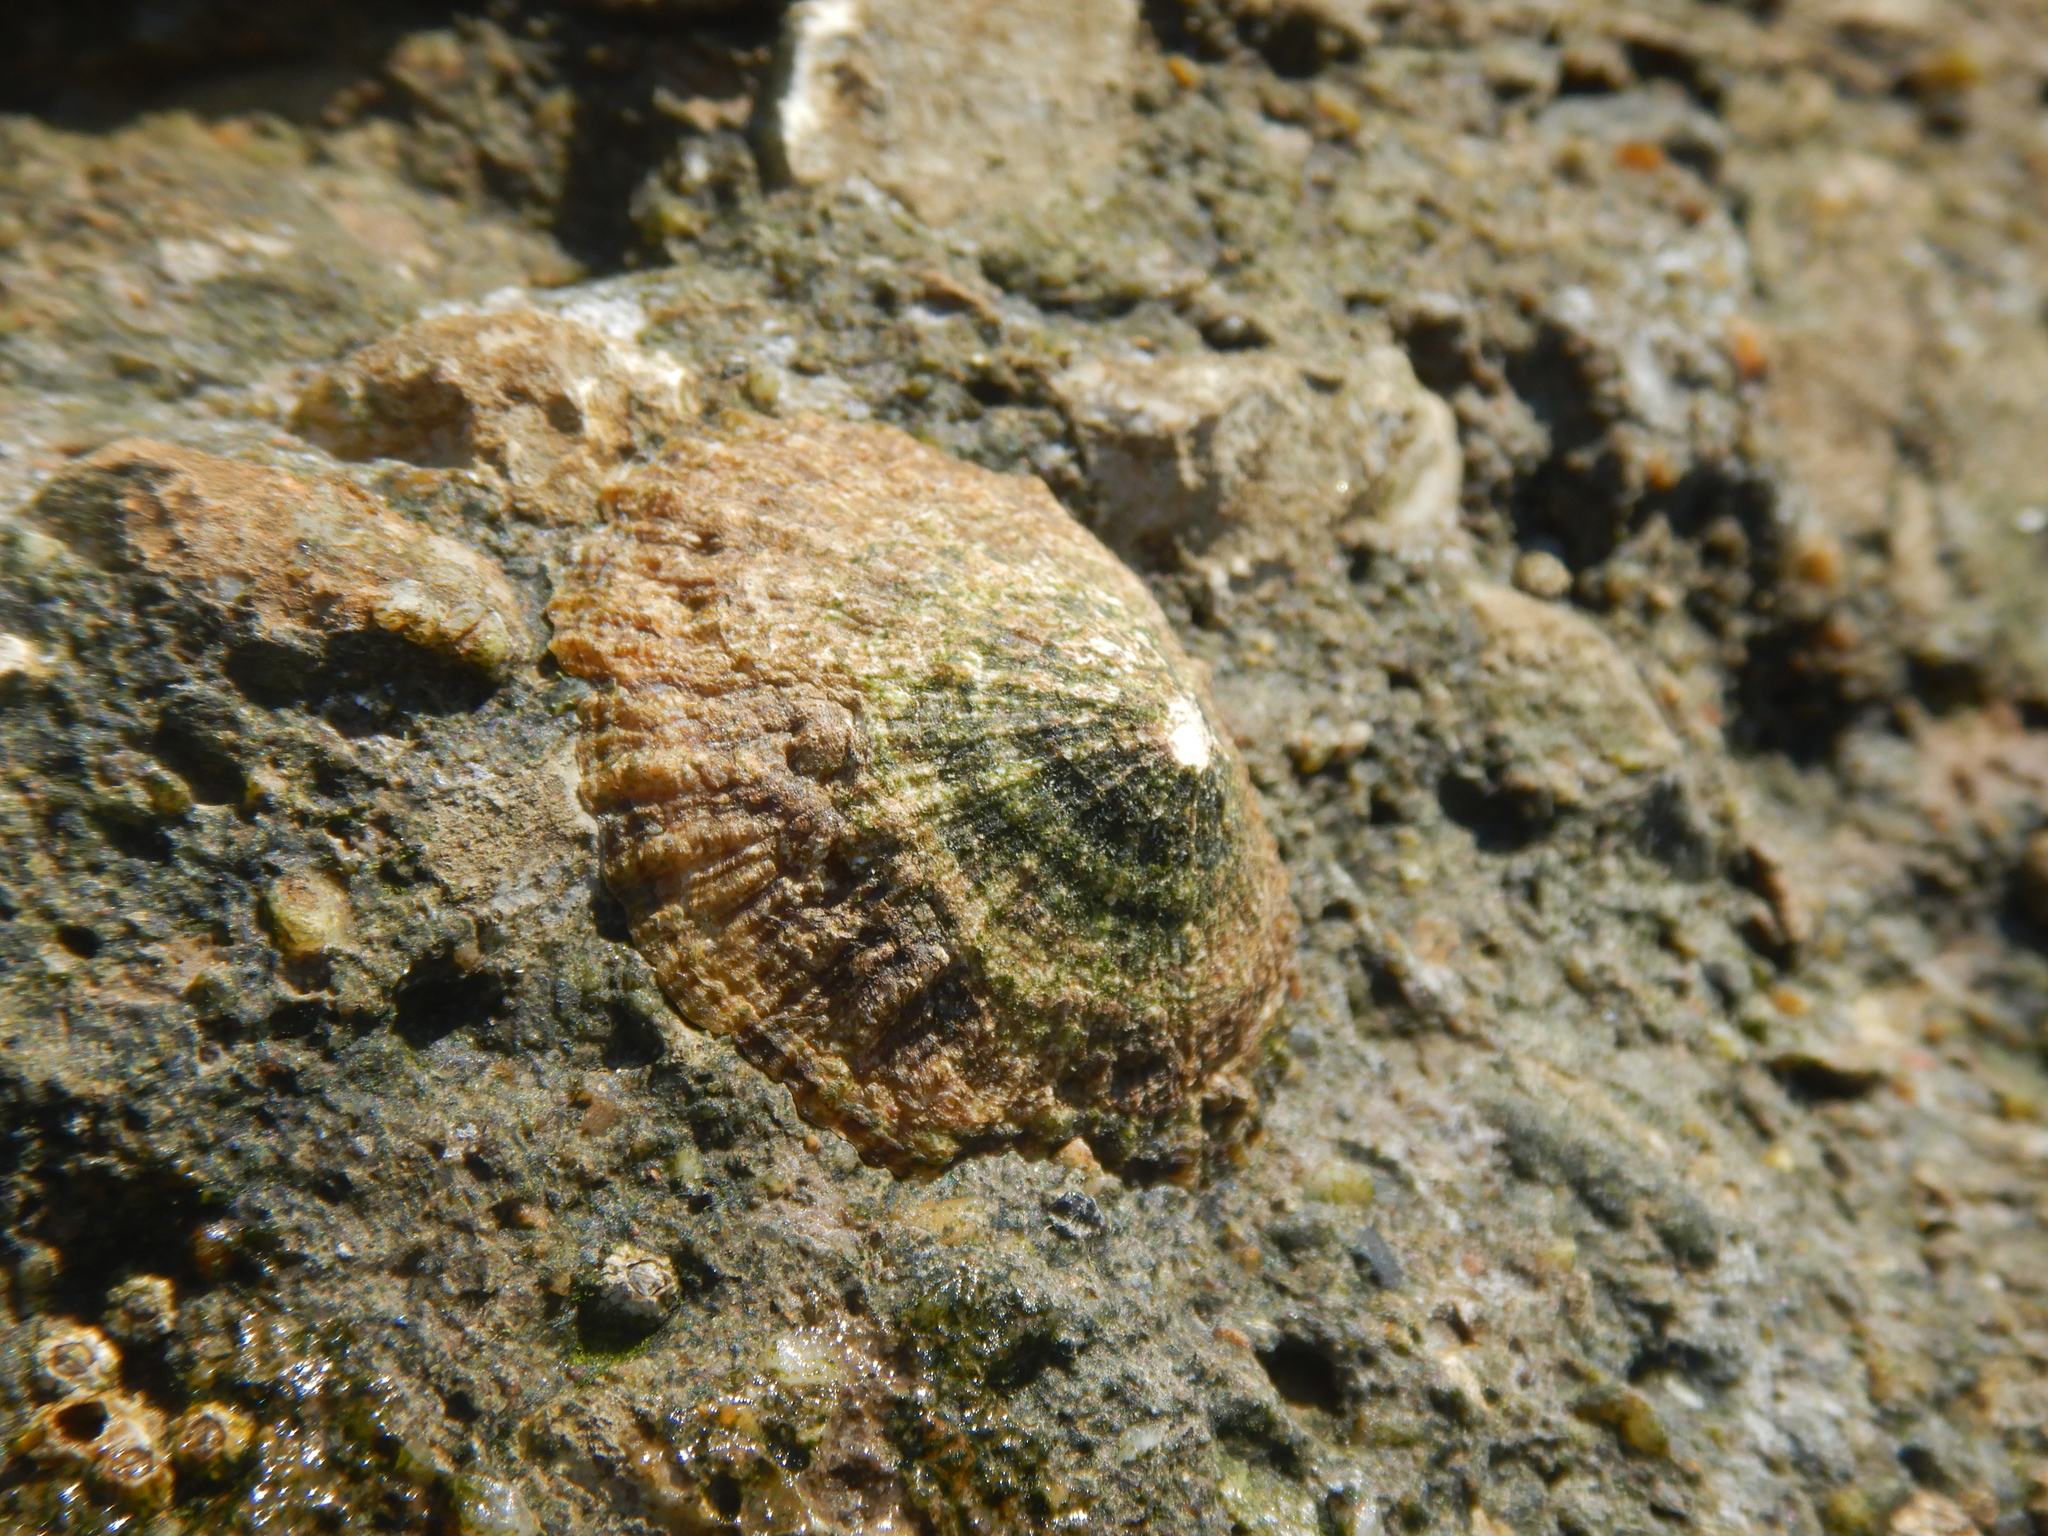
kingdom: Animalia
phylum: Mollusca
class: Gastropoda
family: Patellidae
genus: Patella
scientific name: Patella caerulea
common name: Mediterranean limpet
